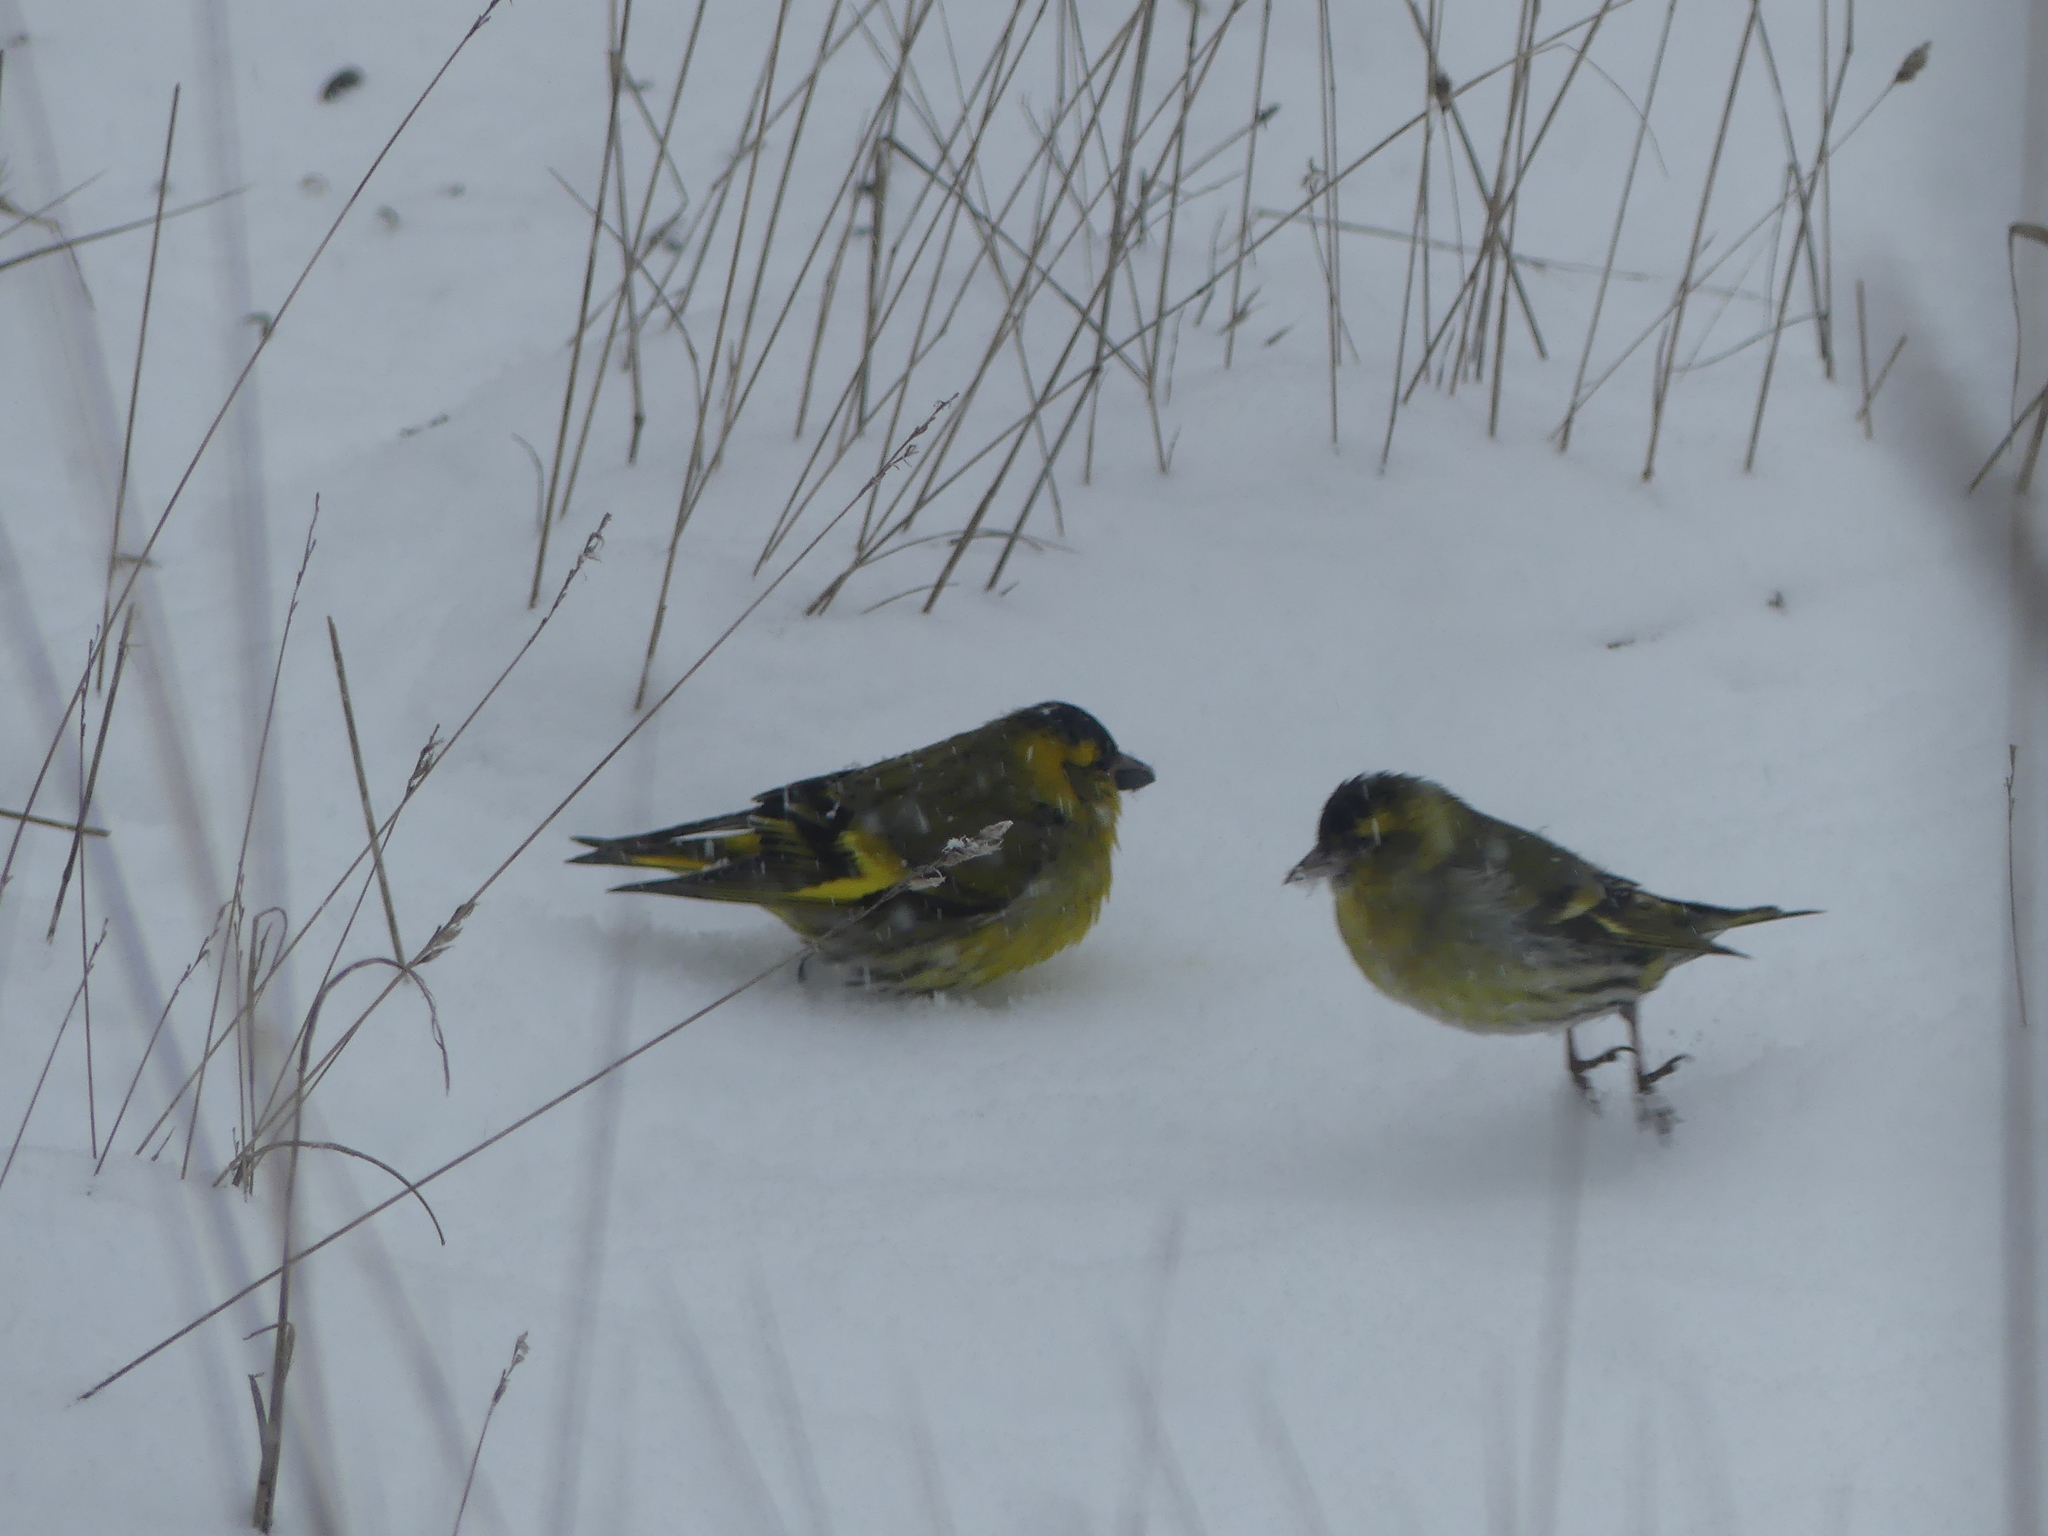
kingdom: Animalia
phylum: Chordata
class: Aves
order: Passeriformes
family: Fringillidae
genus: Spinus
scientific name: Spinus spinus
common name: Eurasian siskin
